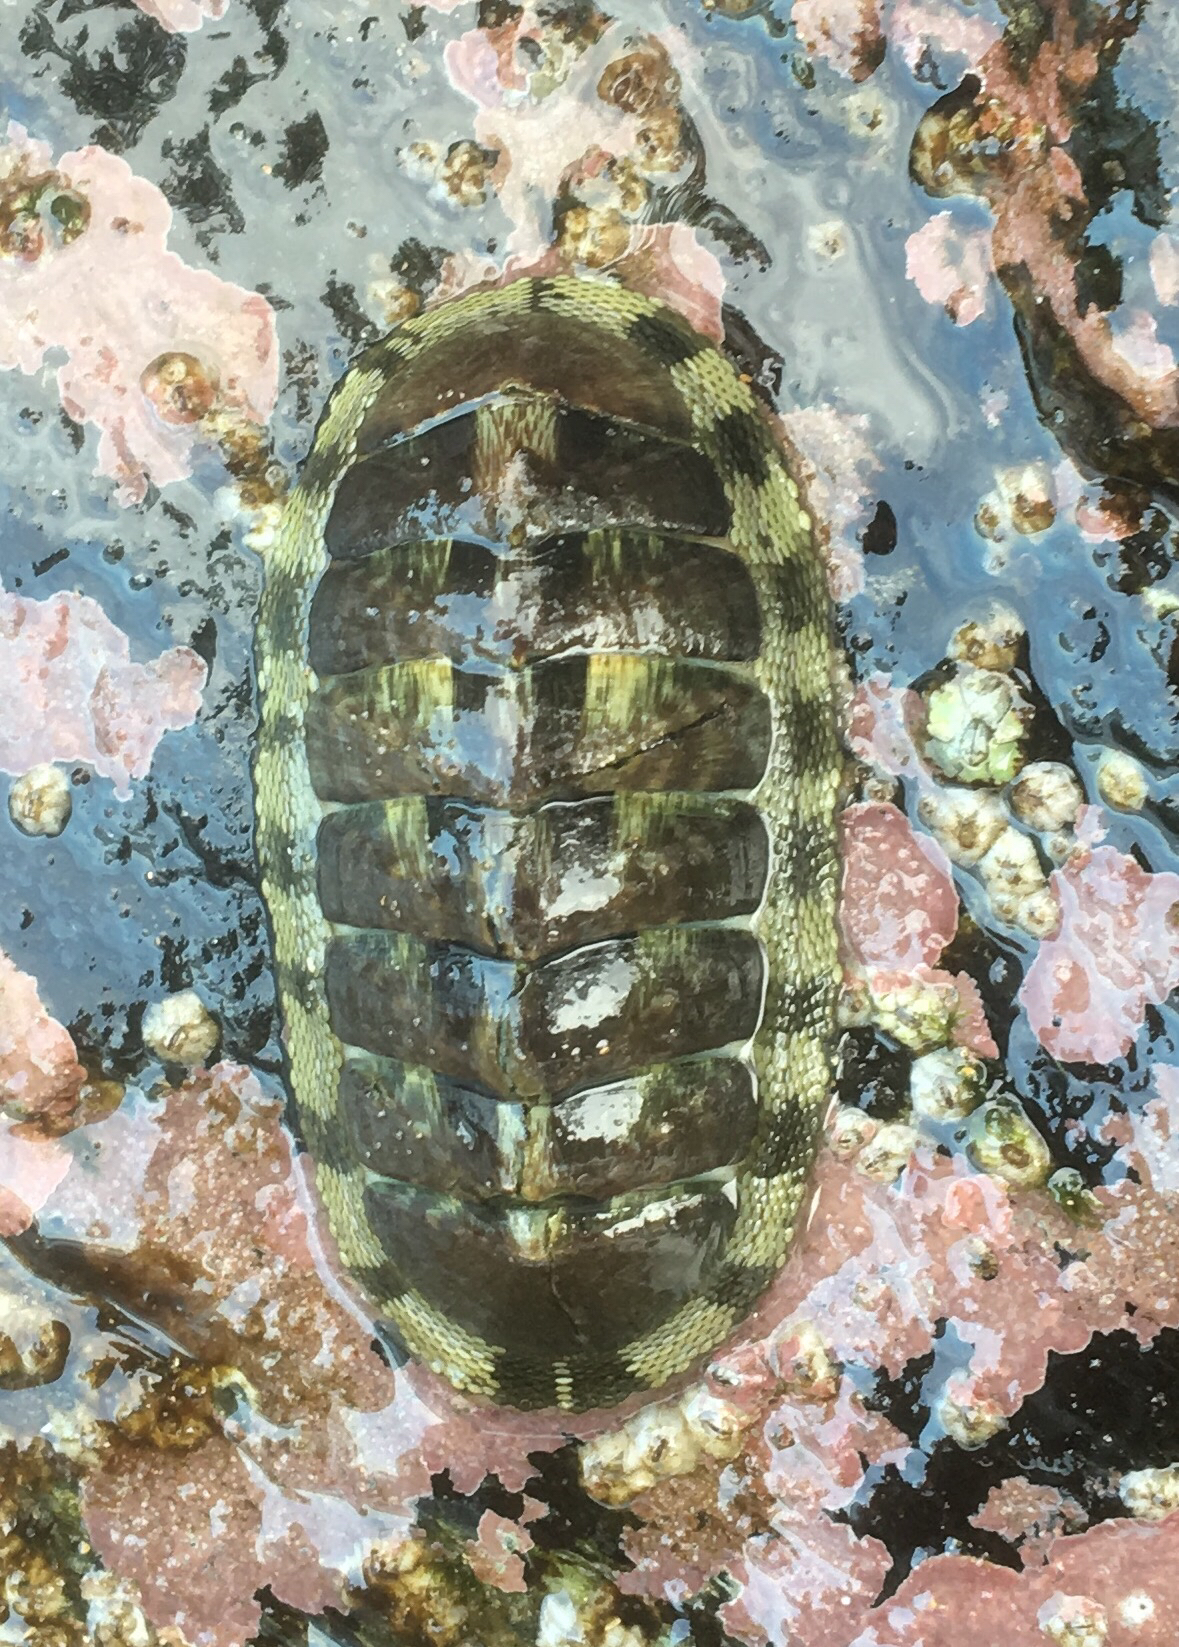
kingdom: Animalia
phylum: Mollusca
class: Polyplacophora
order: Chitonida
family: Chitonidae
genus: Chiton
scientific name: Chiton marmoratus
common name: Marbled chiton
